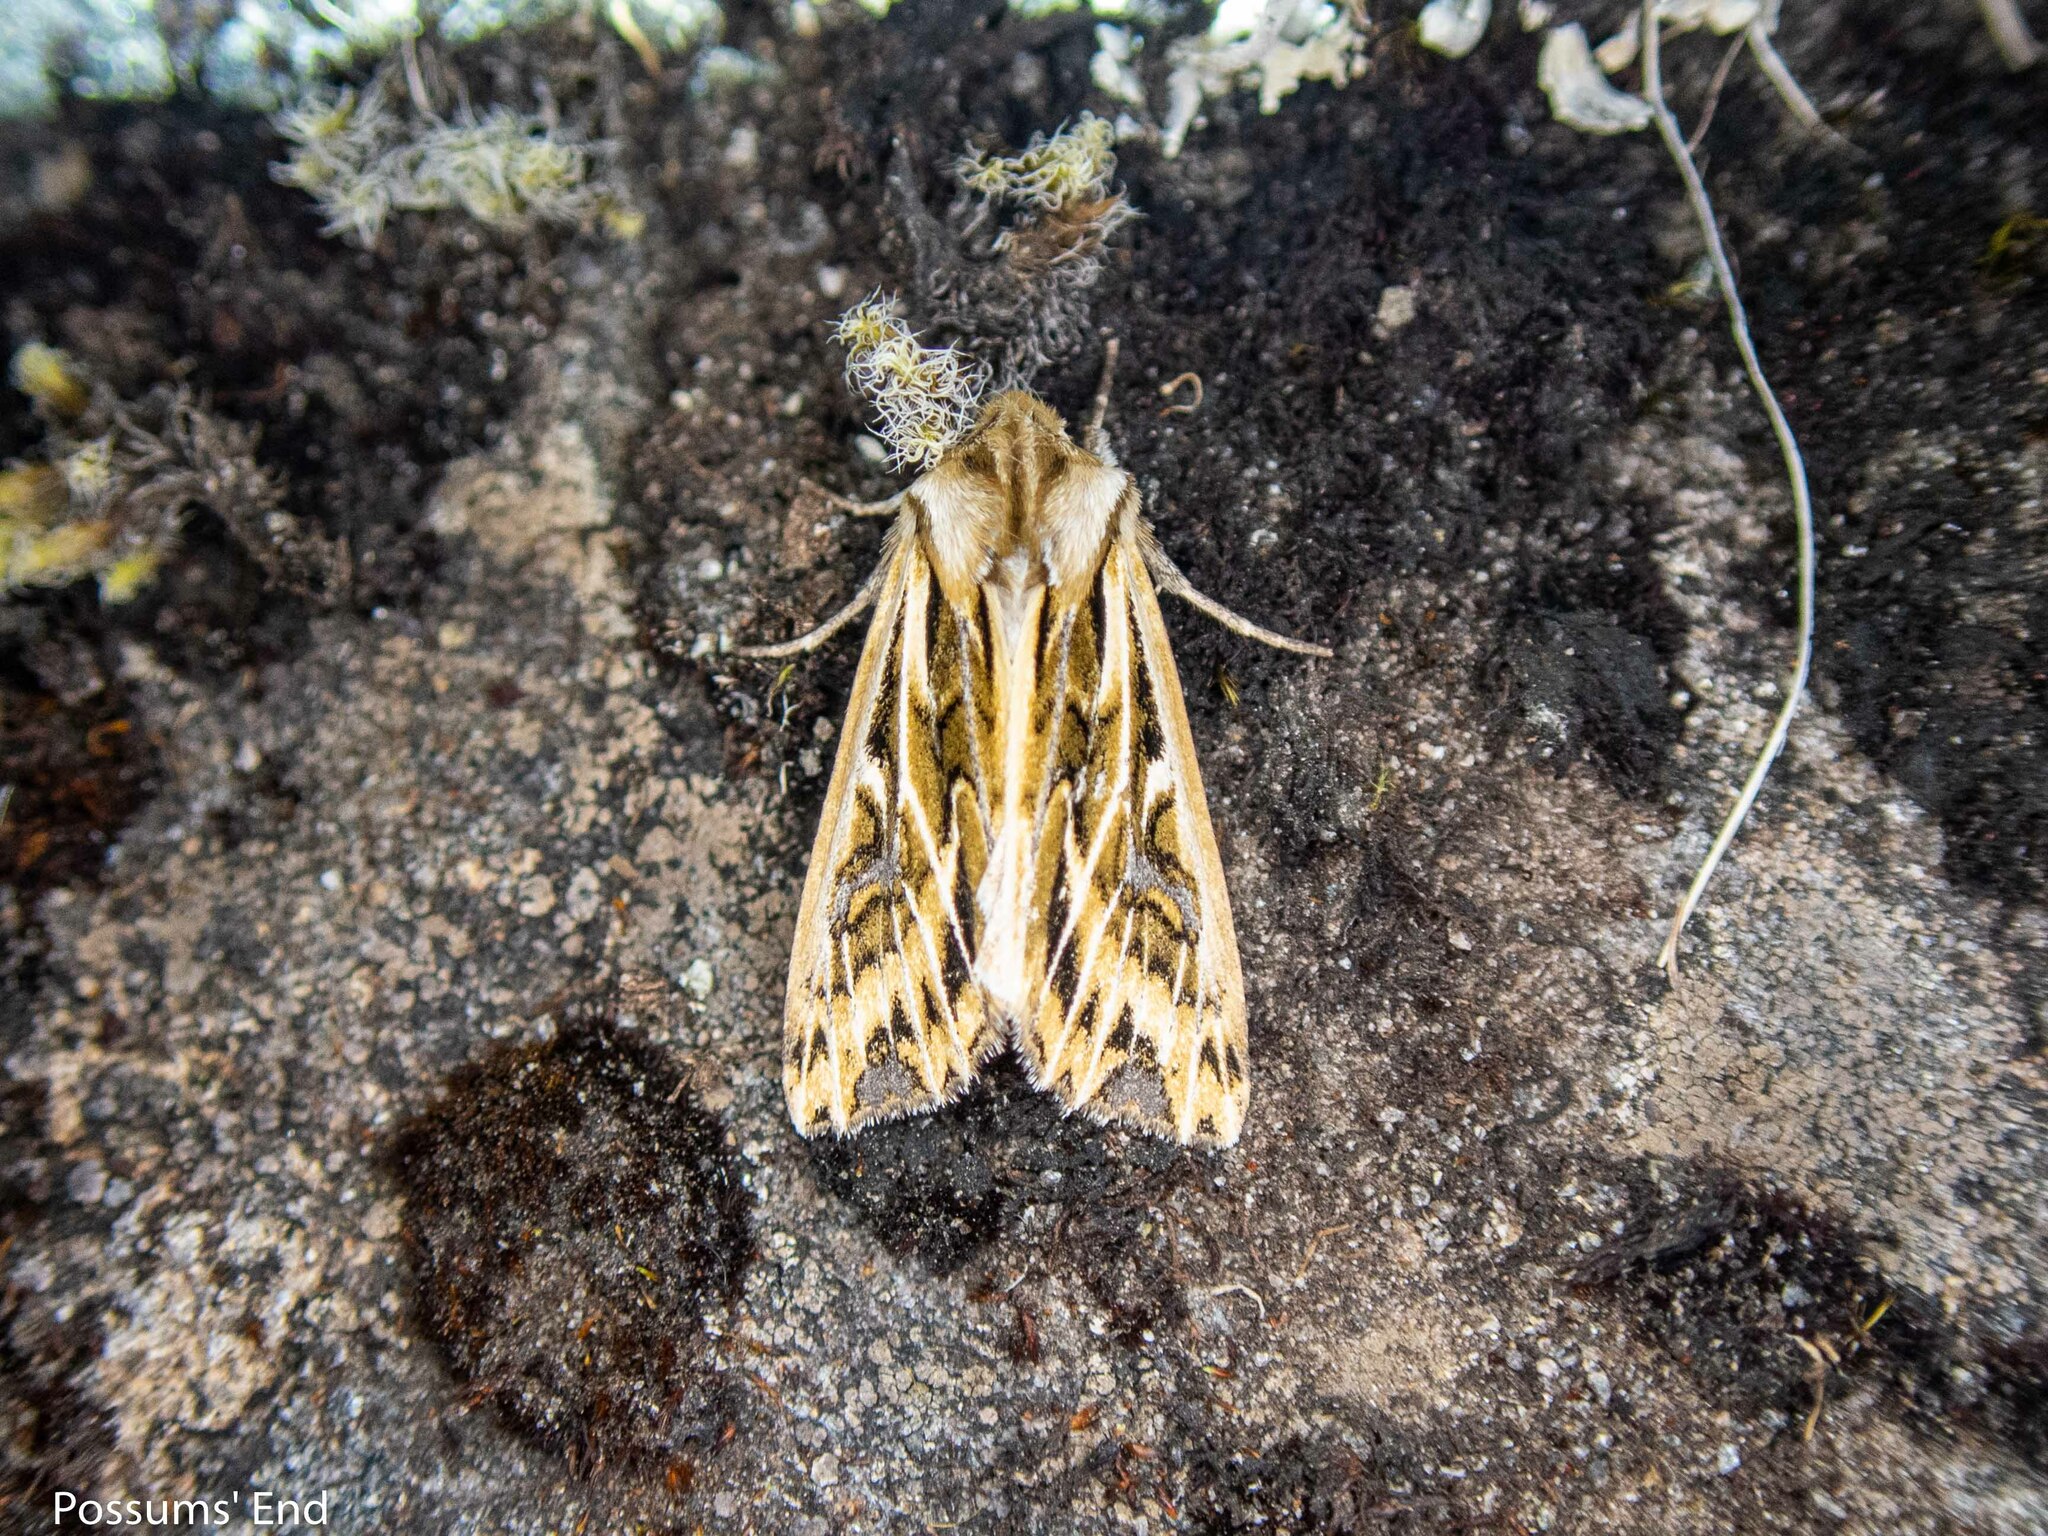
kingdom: Animalia
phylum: Arthropoda
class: Insecta
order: Lepidoptera
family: Noctuidae
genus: Ichneutica
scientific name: Ichneutica
